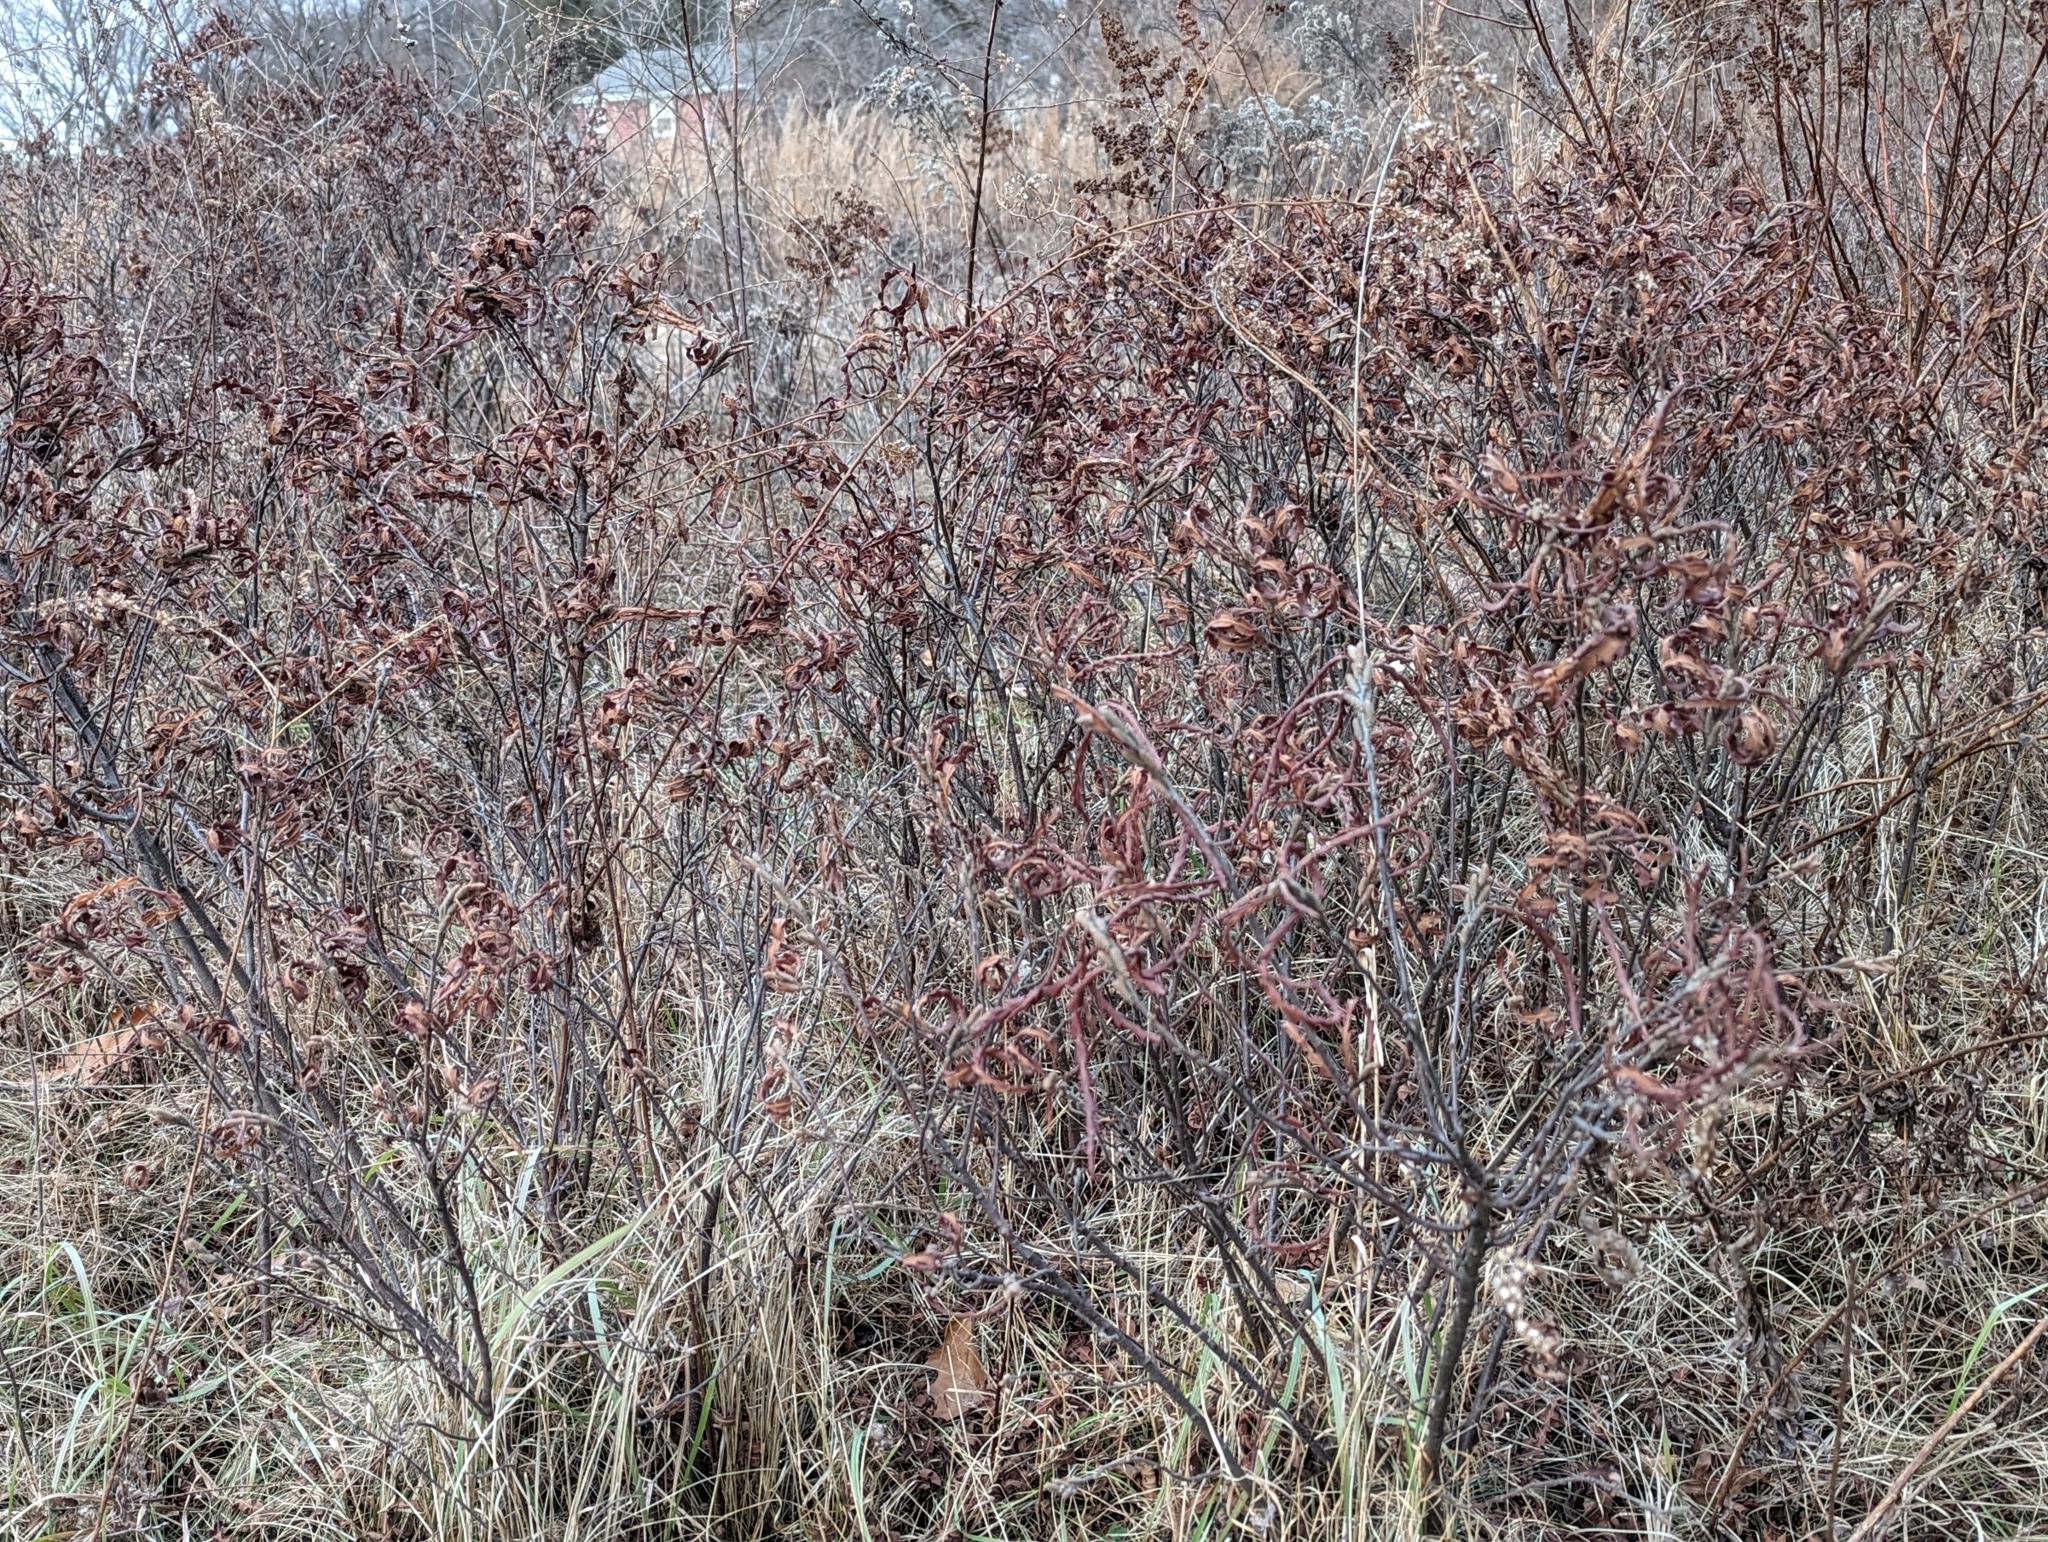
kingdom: Plantae
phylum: Tracheophyta
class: Magnoliopsida
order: Fagales
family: Myricaceae
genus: Comptonia
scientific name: Comptonia peregrina
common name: Sweet-fern
